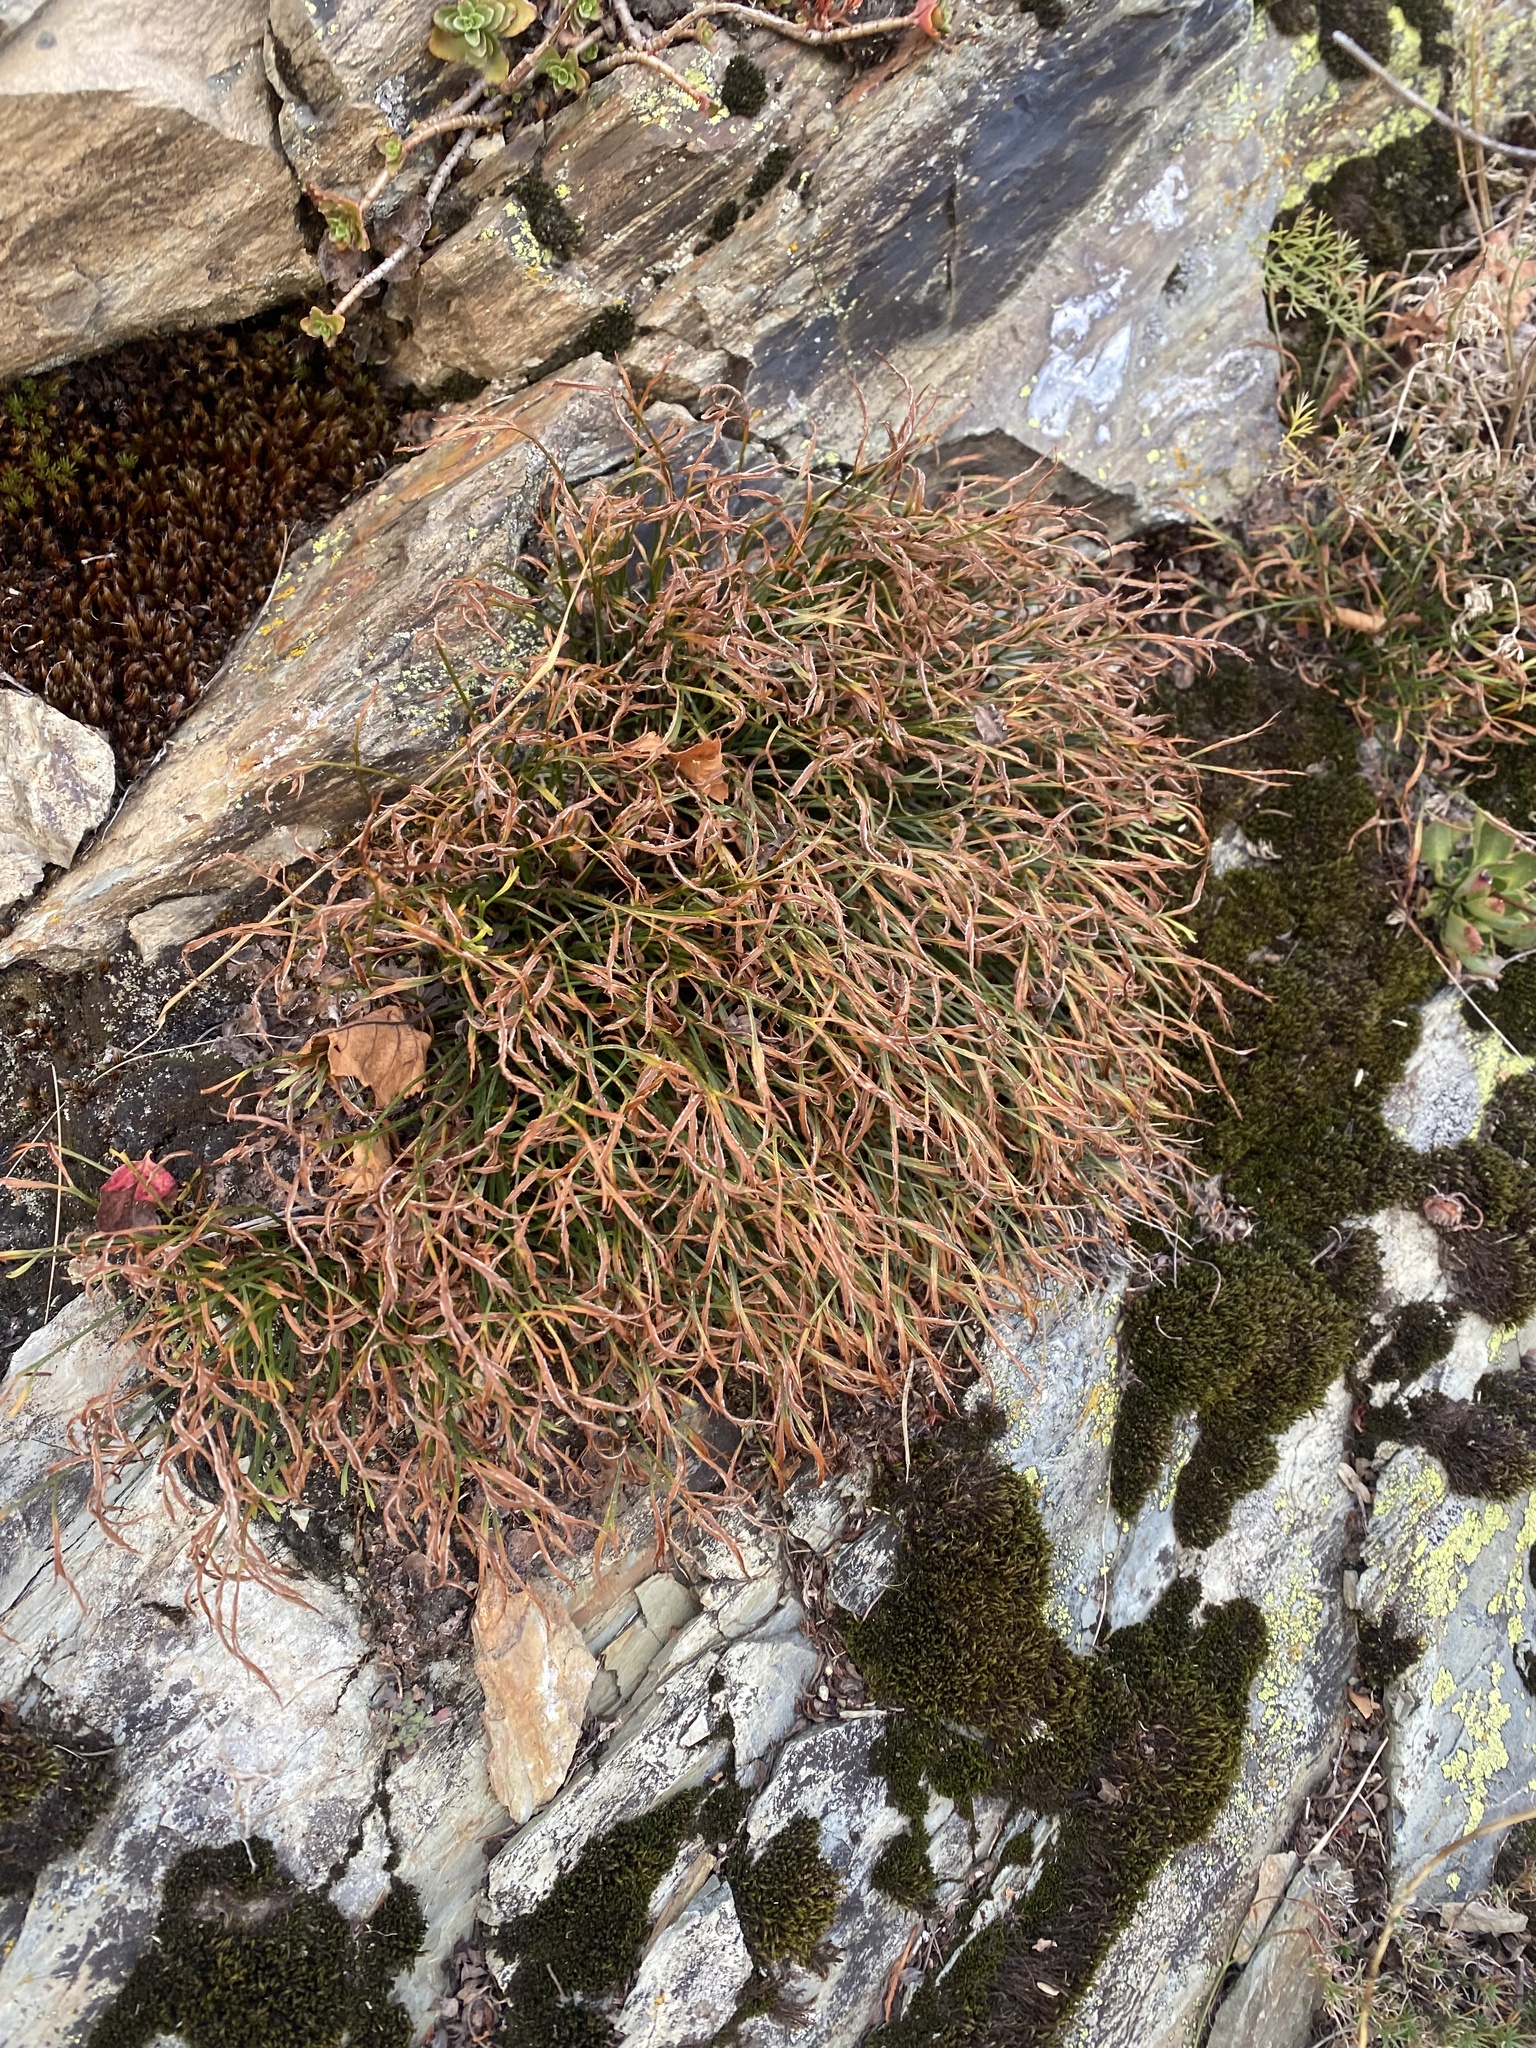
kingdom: Plantae
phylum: Tracheophyta
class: Polypodiopsida
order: Polypodiales
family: Aspleniaceae
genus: Asplenium
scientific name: Asplenium septentrionale
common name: Forked spleenwort
